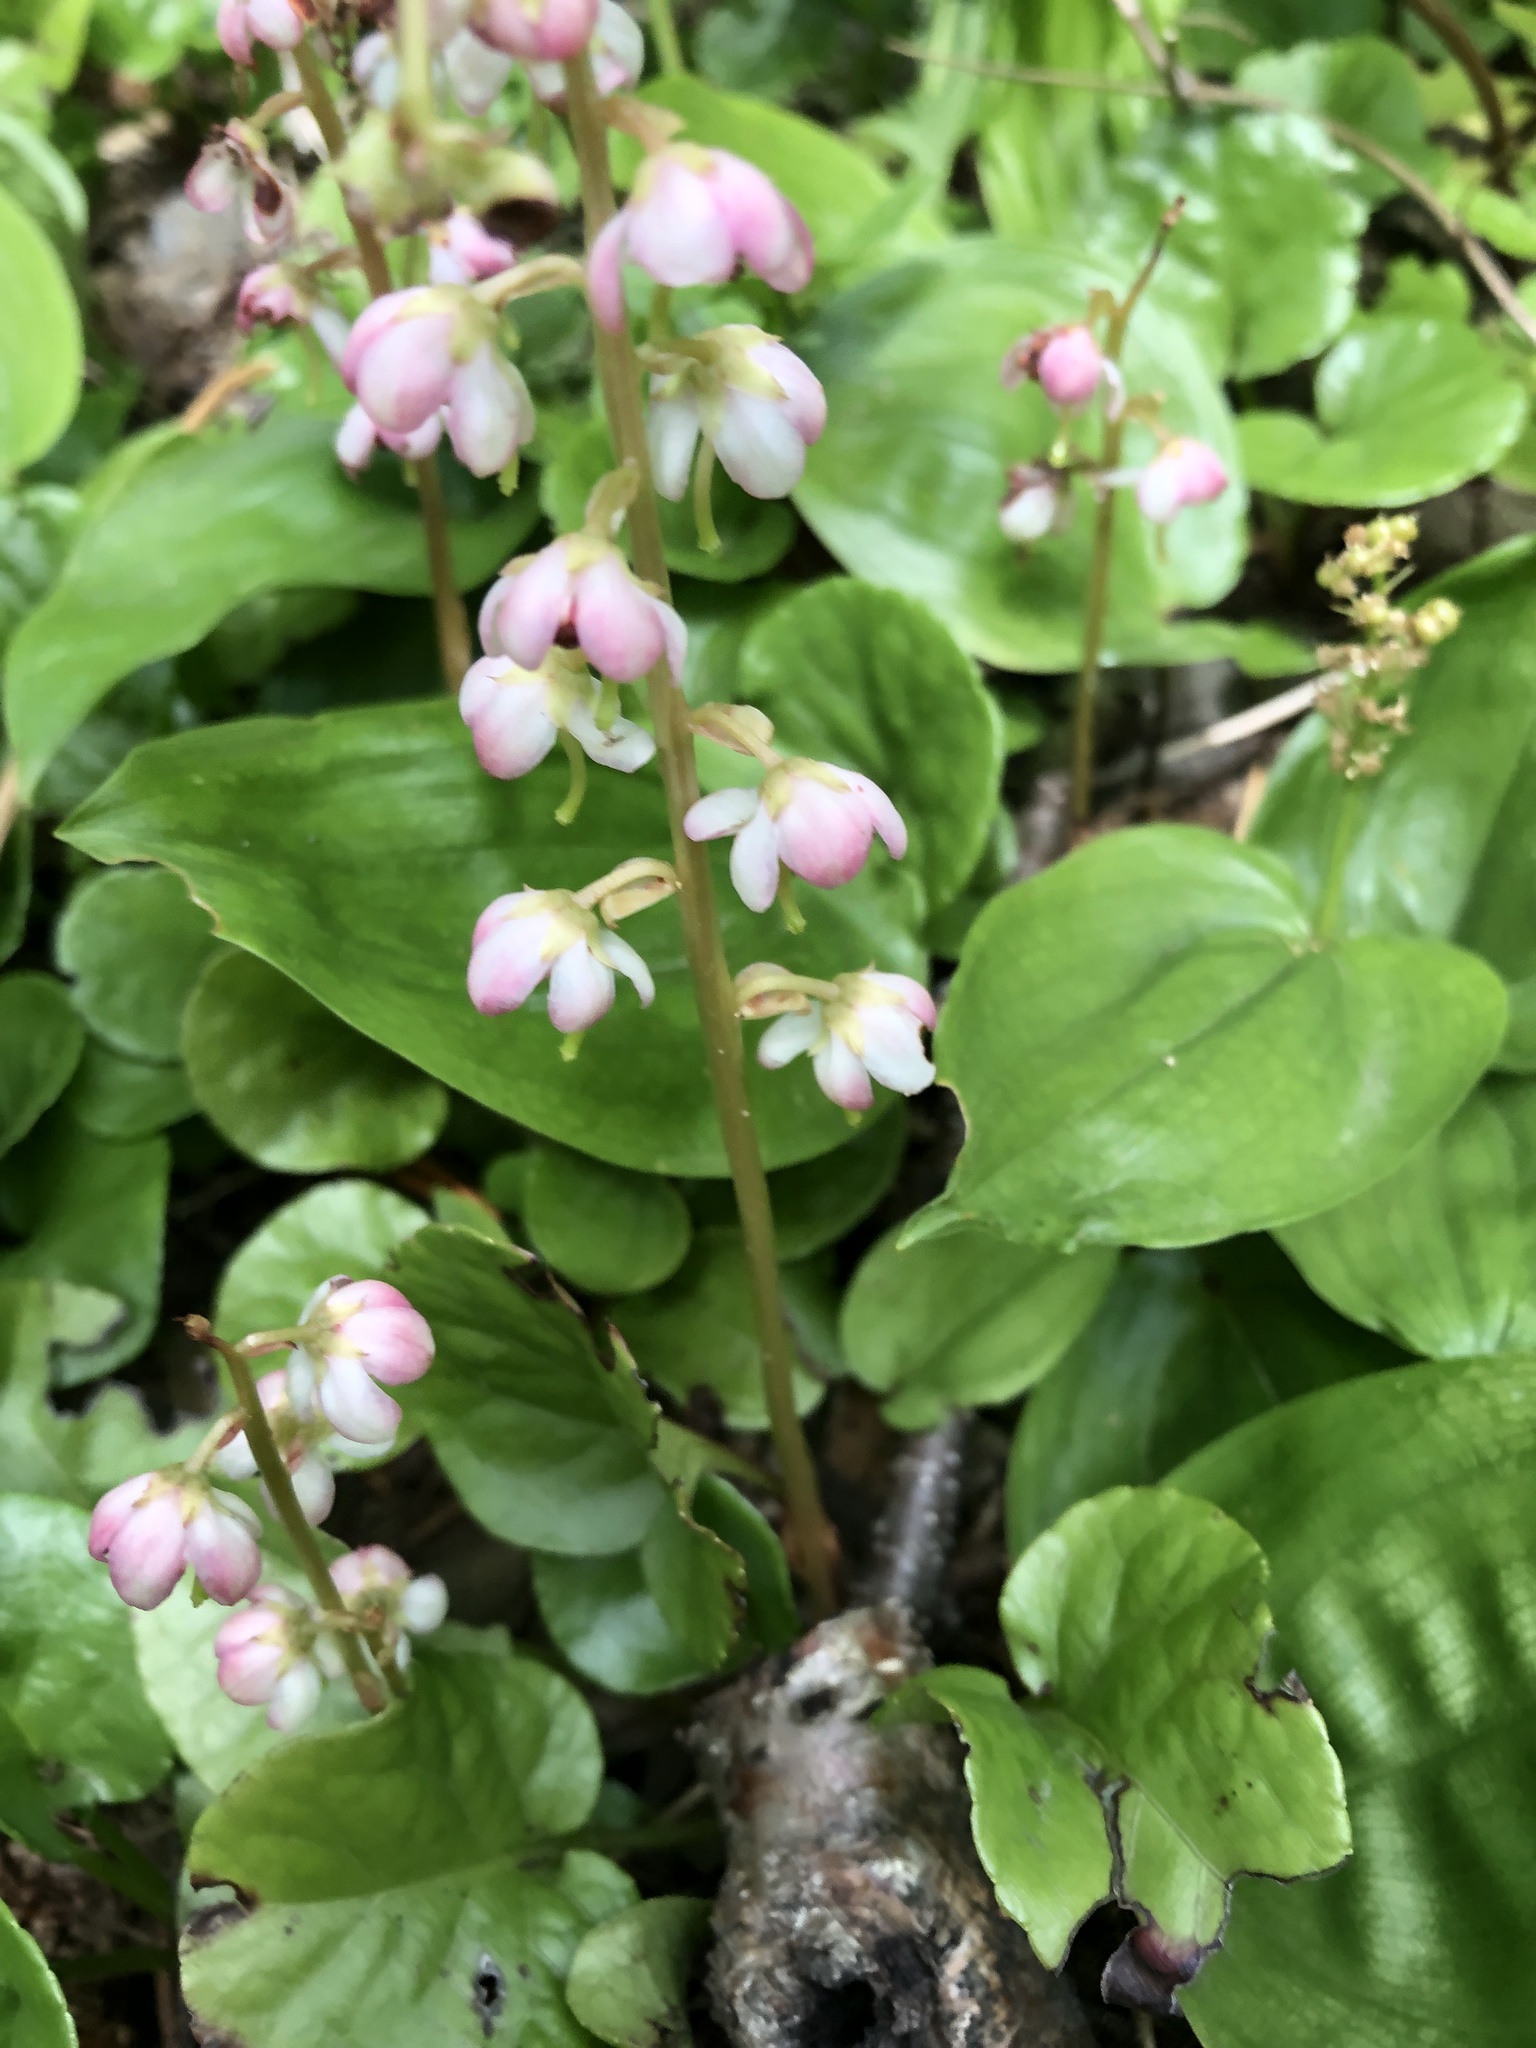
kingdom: Plantae
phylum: Tracheophyta
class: Magnoliopsida
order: Ericales
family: Ericaceae
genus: Pyrola
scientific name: Pyrola asarifolia
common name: Bog wintergreen
